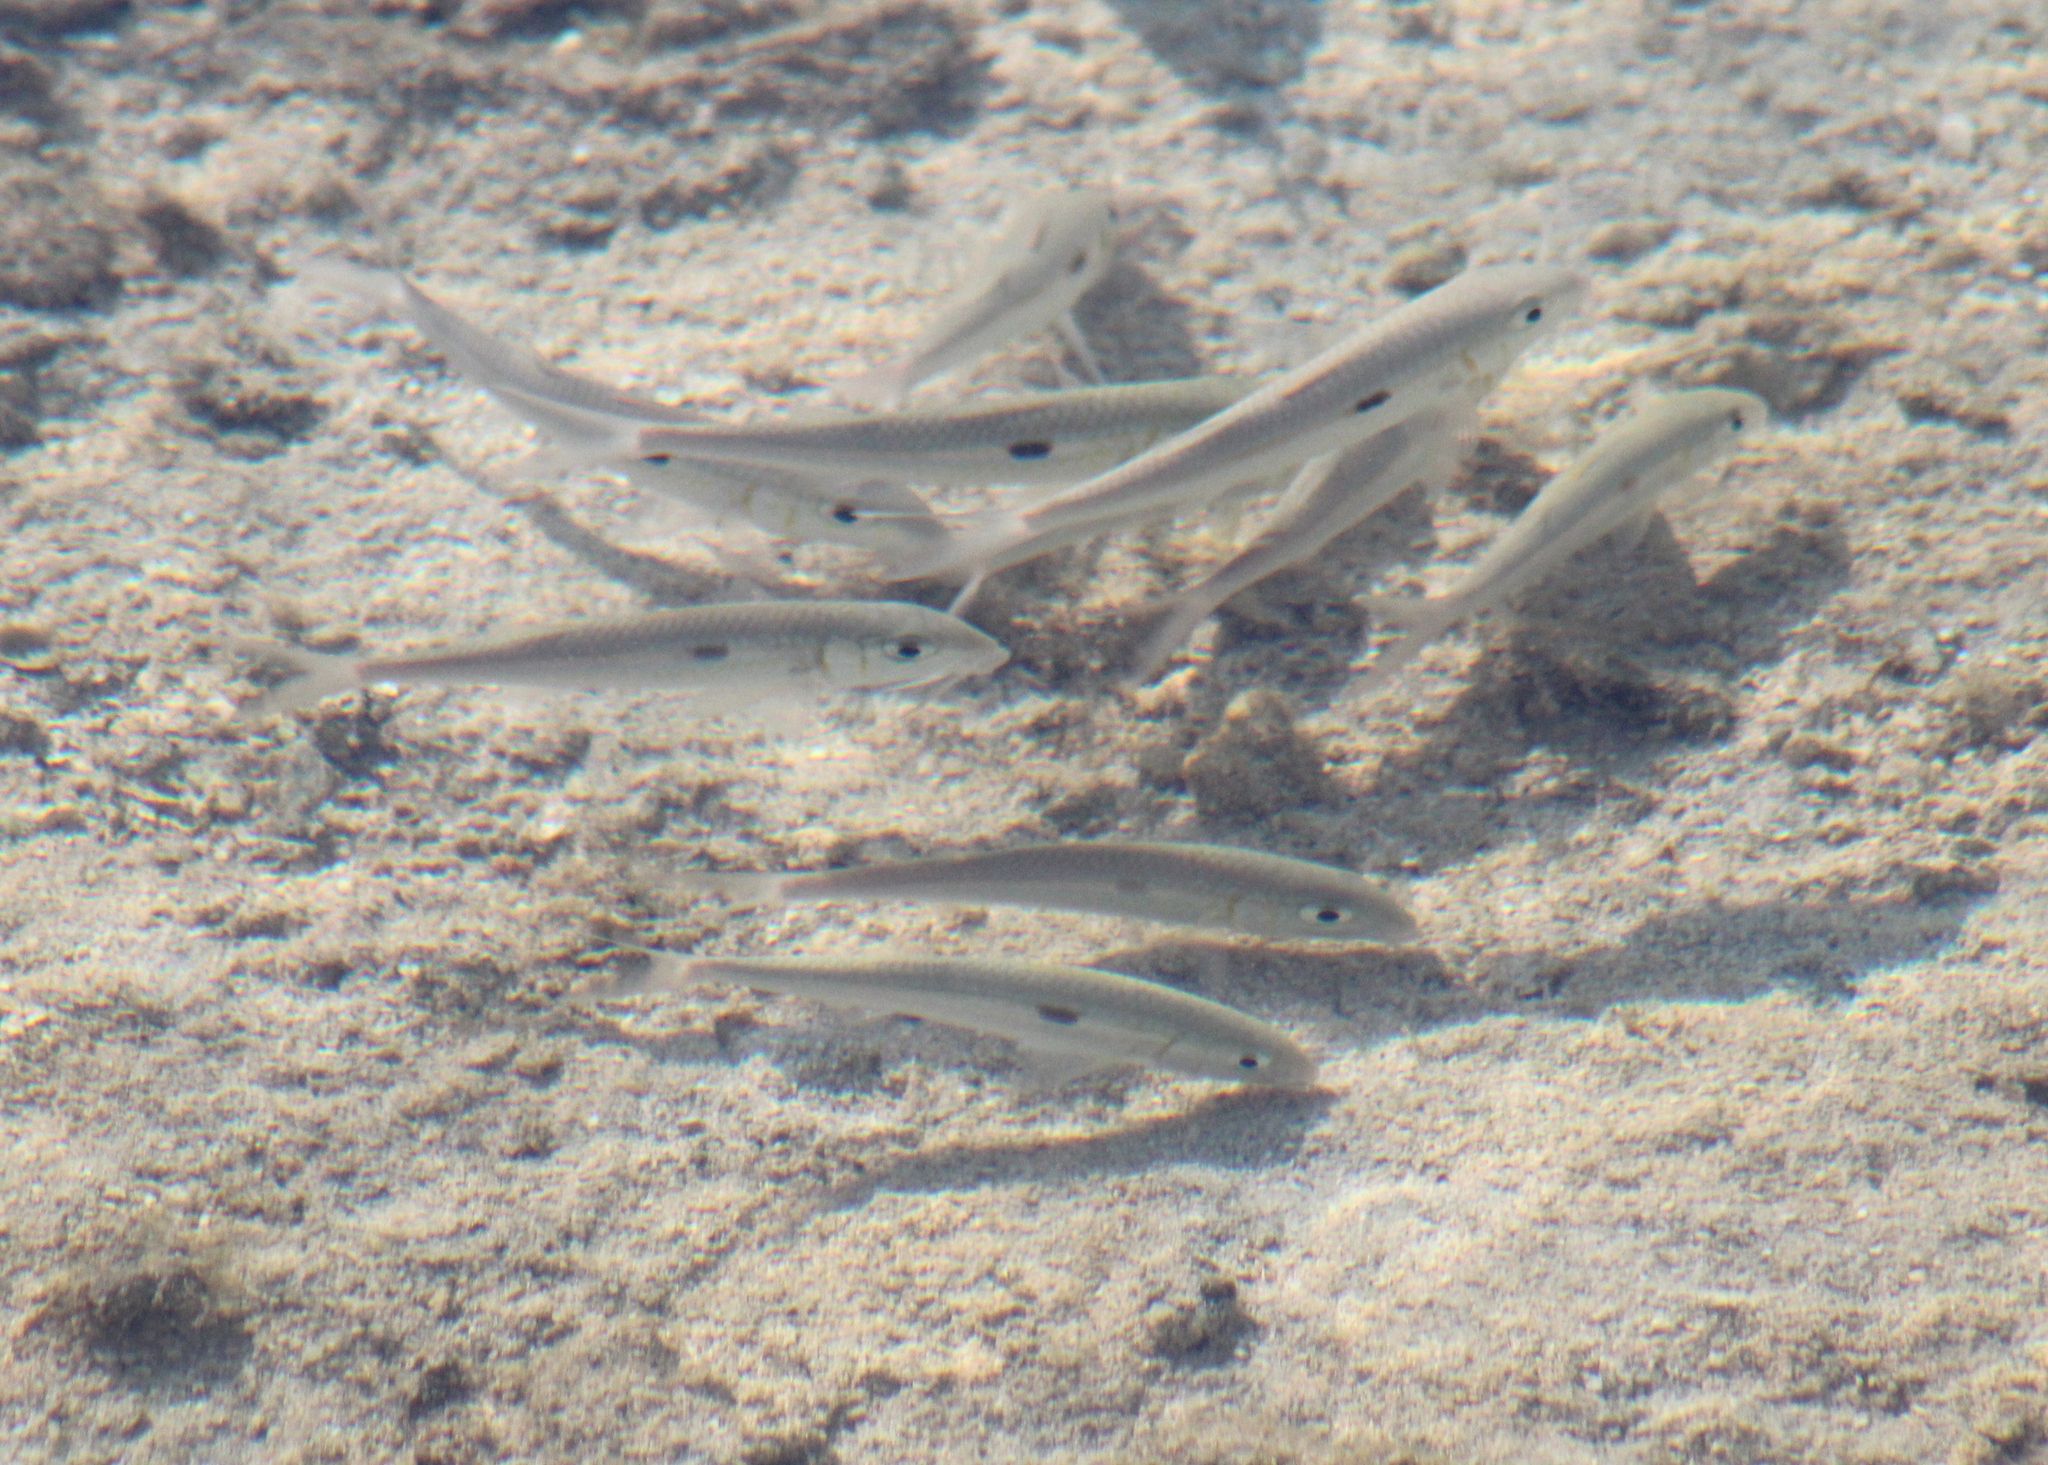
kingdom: Animalia
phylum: Chordata
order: Perciformes
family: Mullidae
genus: Mulloidichthys
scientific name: Mulloidichthys flavolineatus
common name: Yellowstripe goatfish
